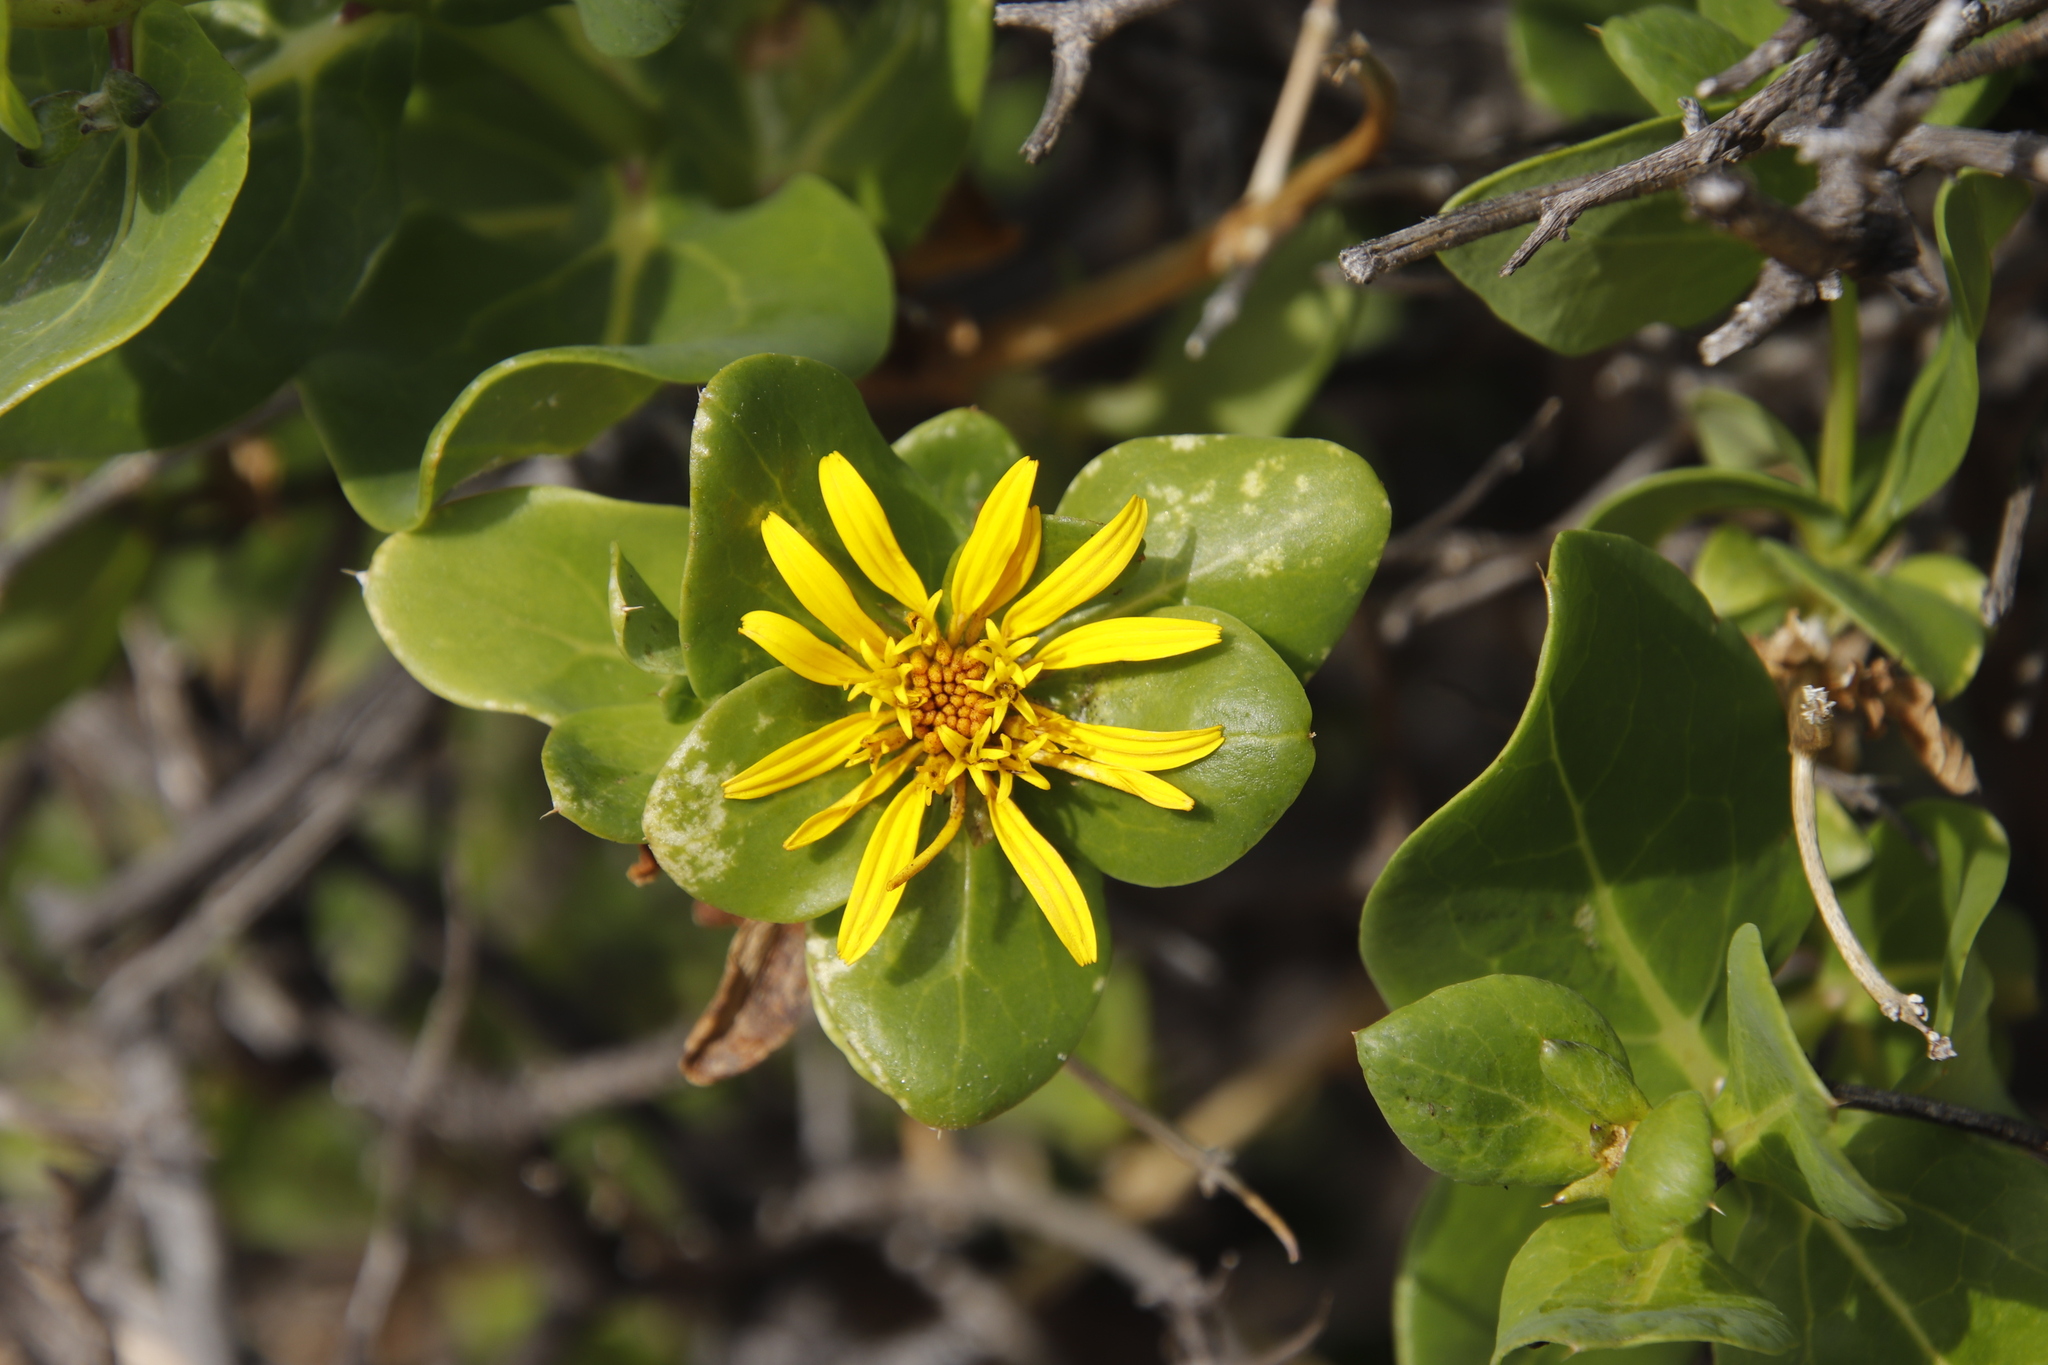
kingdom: Plantae
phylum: Tracheophyta
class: Magnoliopsida
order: Asterales
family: Asteraceae
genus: Didelta
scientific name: Didelta spinosa
